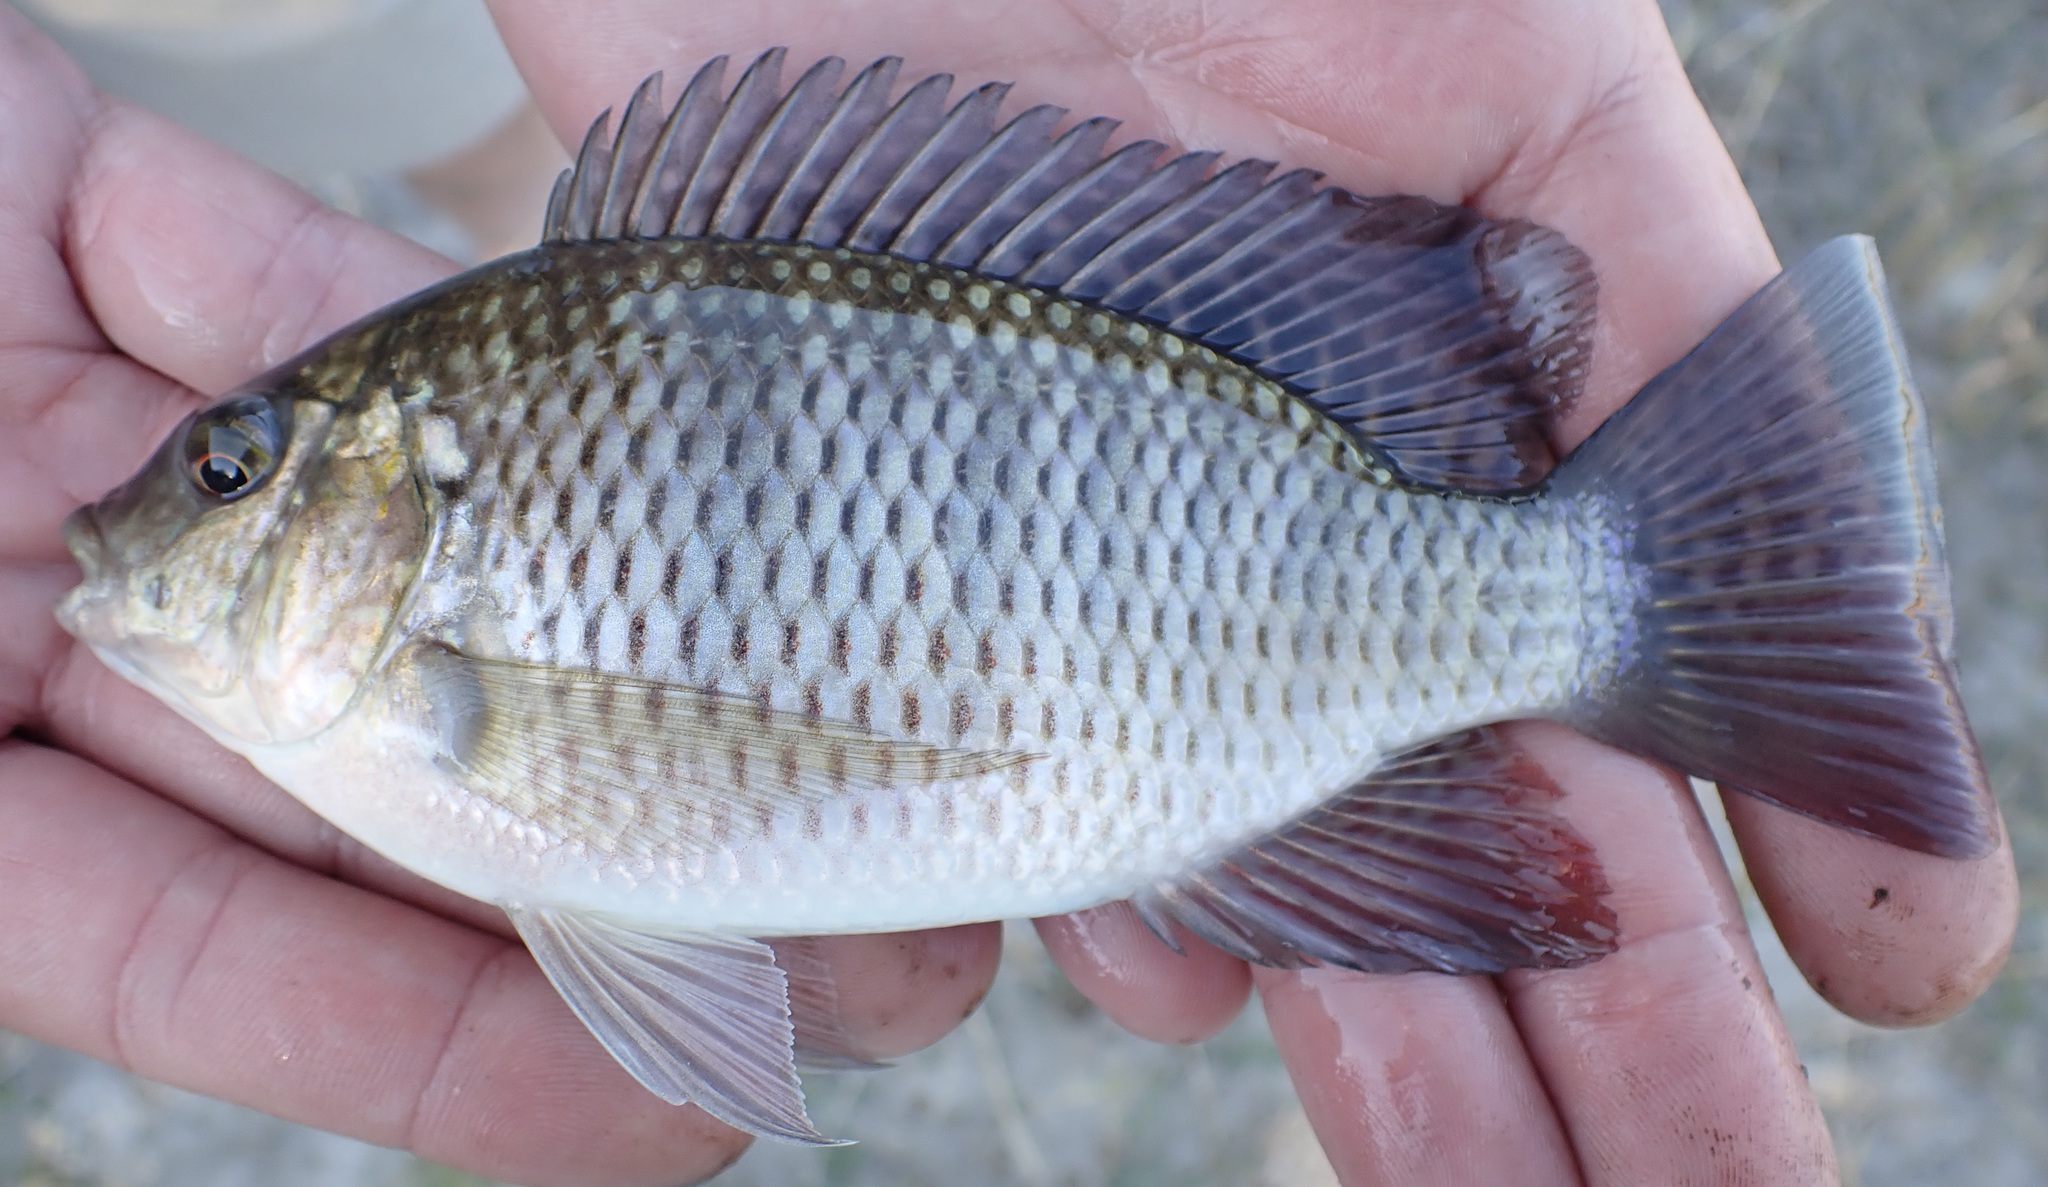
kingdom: Animalia
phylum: Chordata
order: Perciformes
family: Cichlidae
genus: Oreochromis
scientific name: Oreochromis macrochir
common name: Greenhead tilapia
